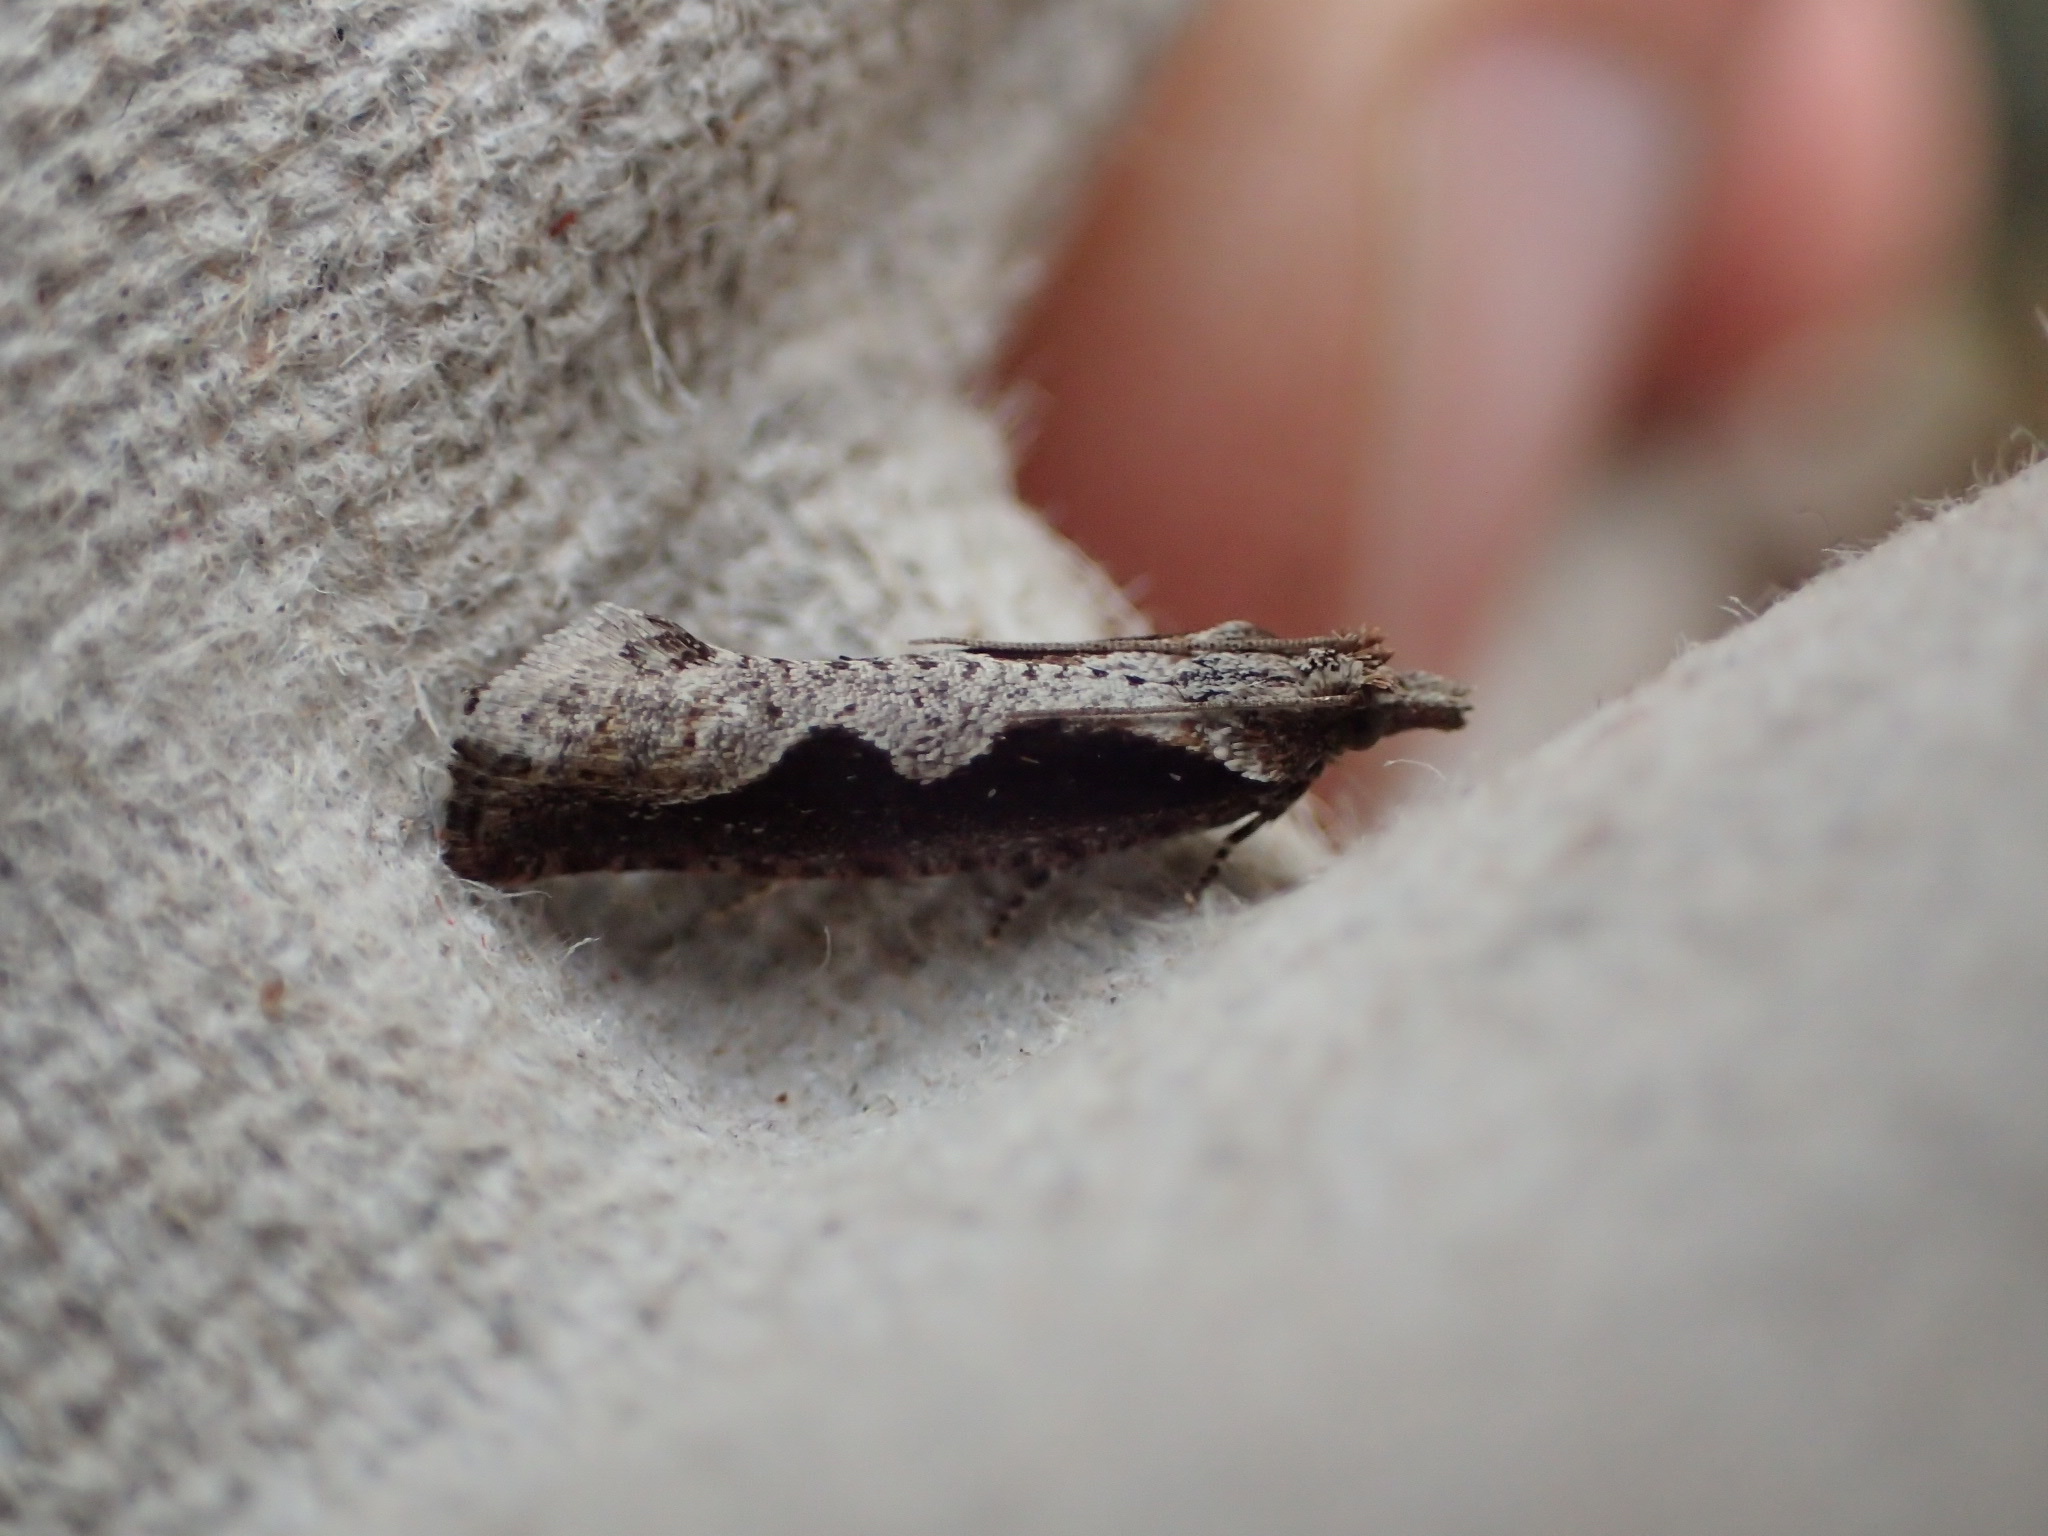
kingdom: Animalia
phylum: Arthropoda
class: Insecta
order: Lepidoptera
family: Tortricidae
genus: Epinotia
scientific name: Epinotia lindana
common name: Diamondback epinotia moth
